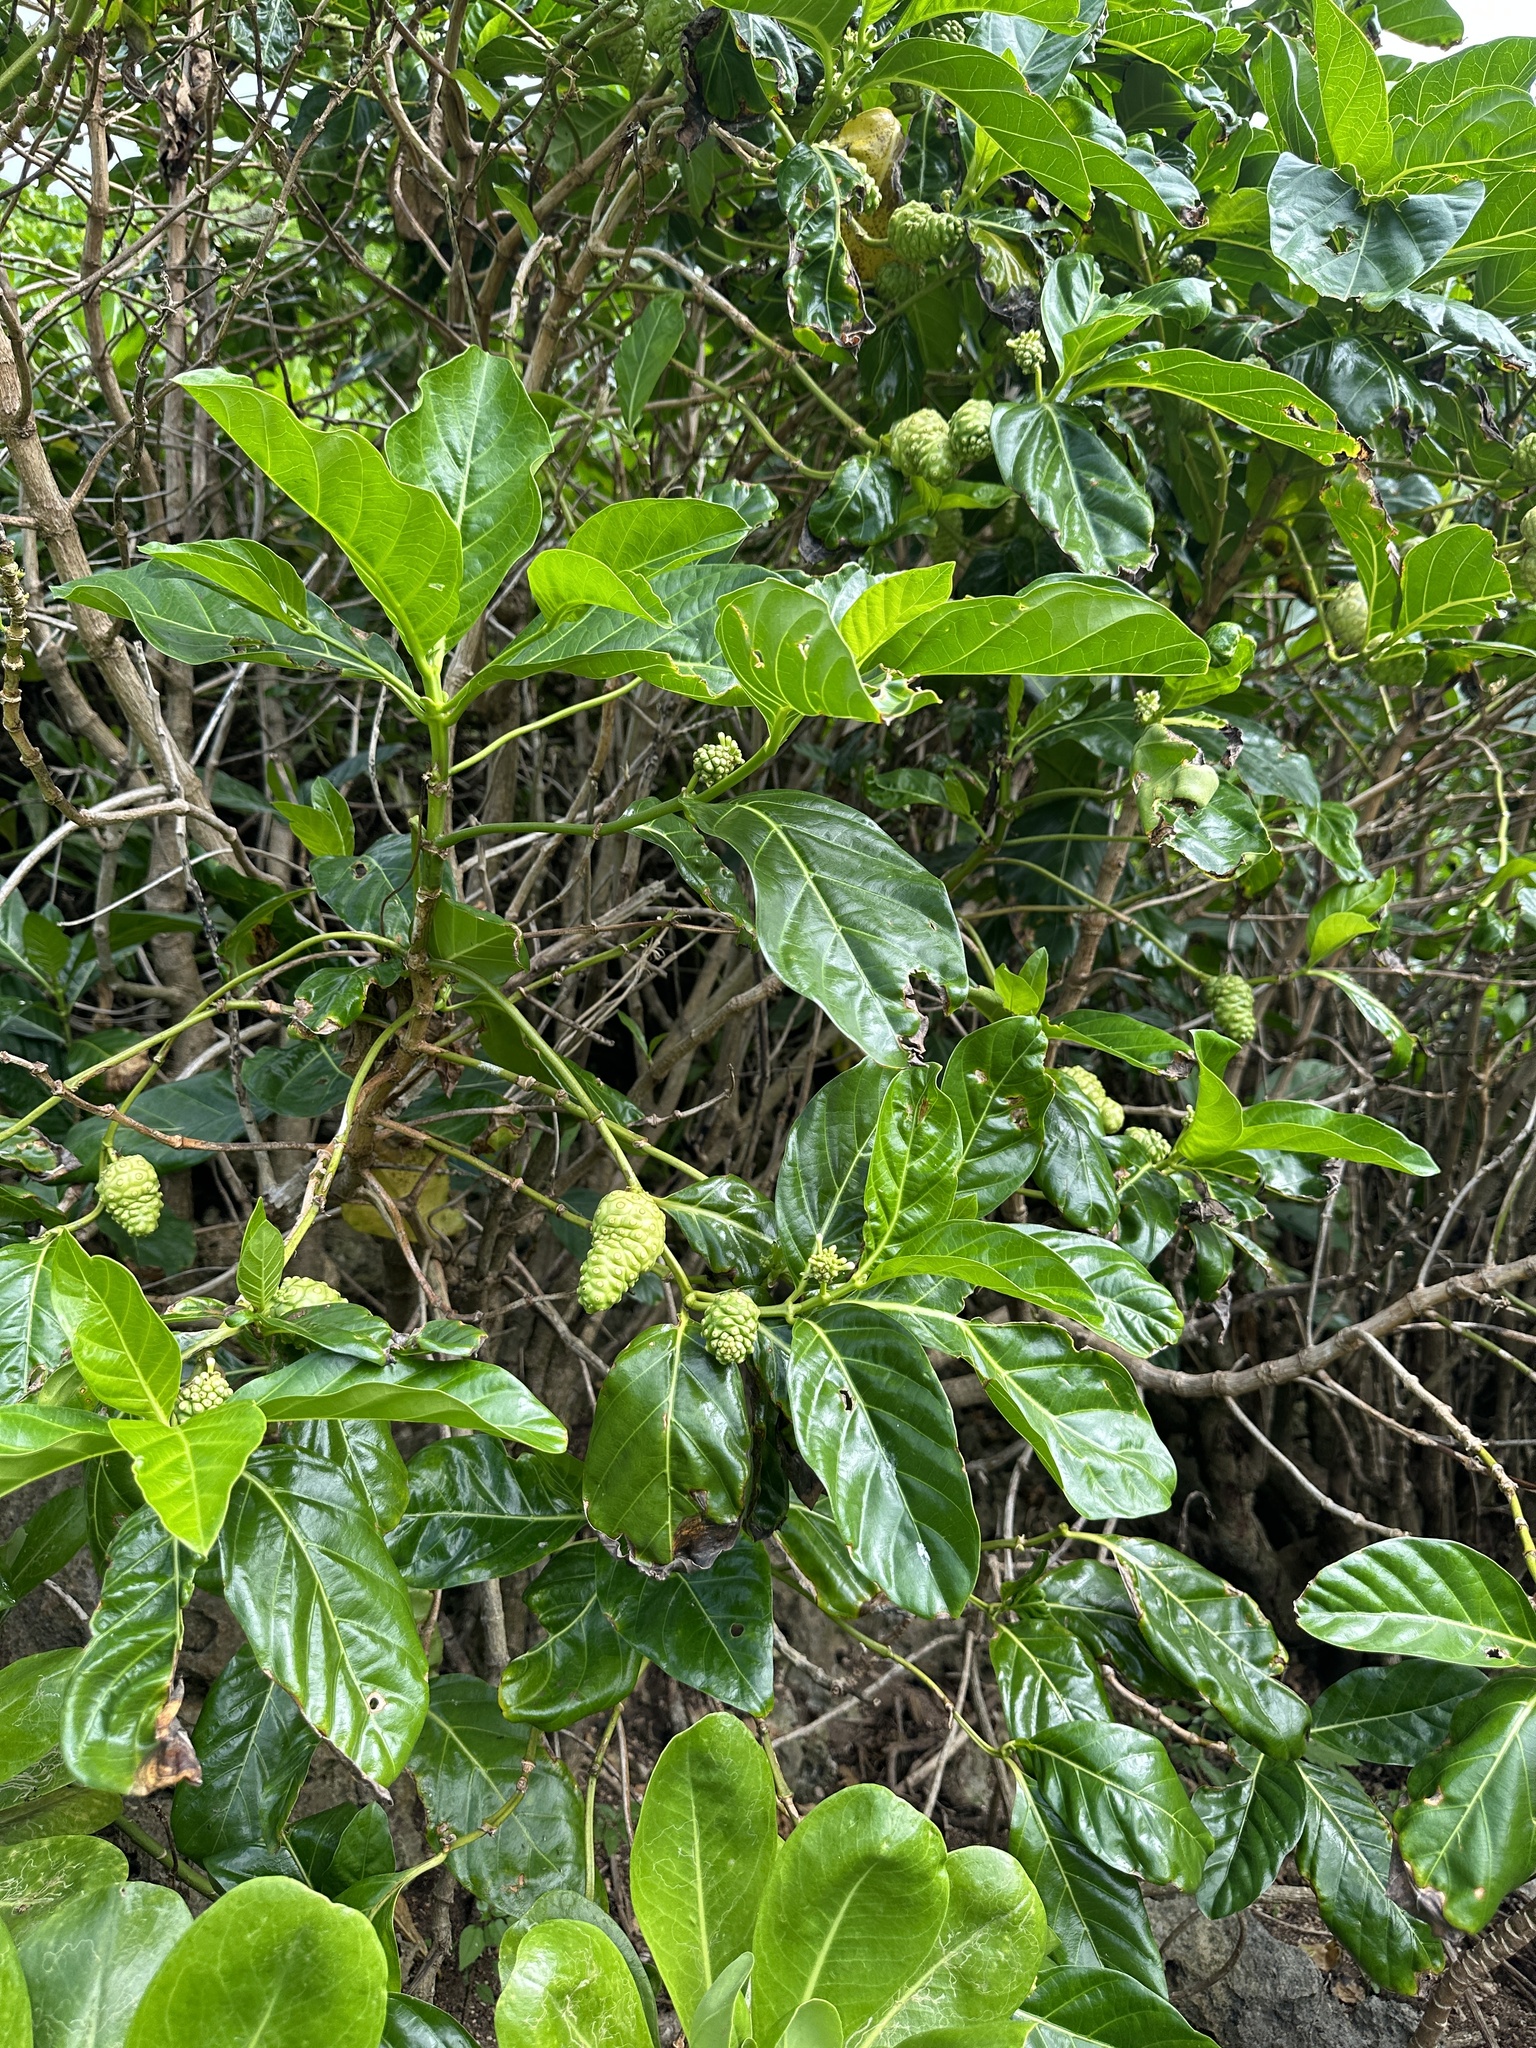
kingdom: Plantae
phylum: Tracheophyta
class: Magnoliopsida
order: Gentianales
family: Rubiaceae
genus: Morinda
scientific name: Morinda citrifolia
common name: Indian-mulberry
